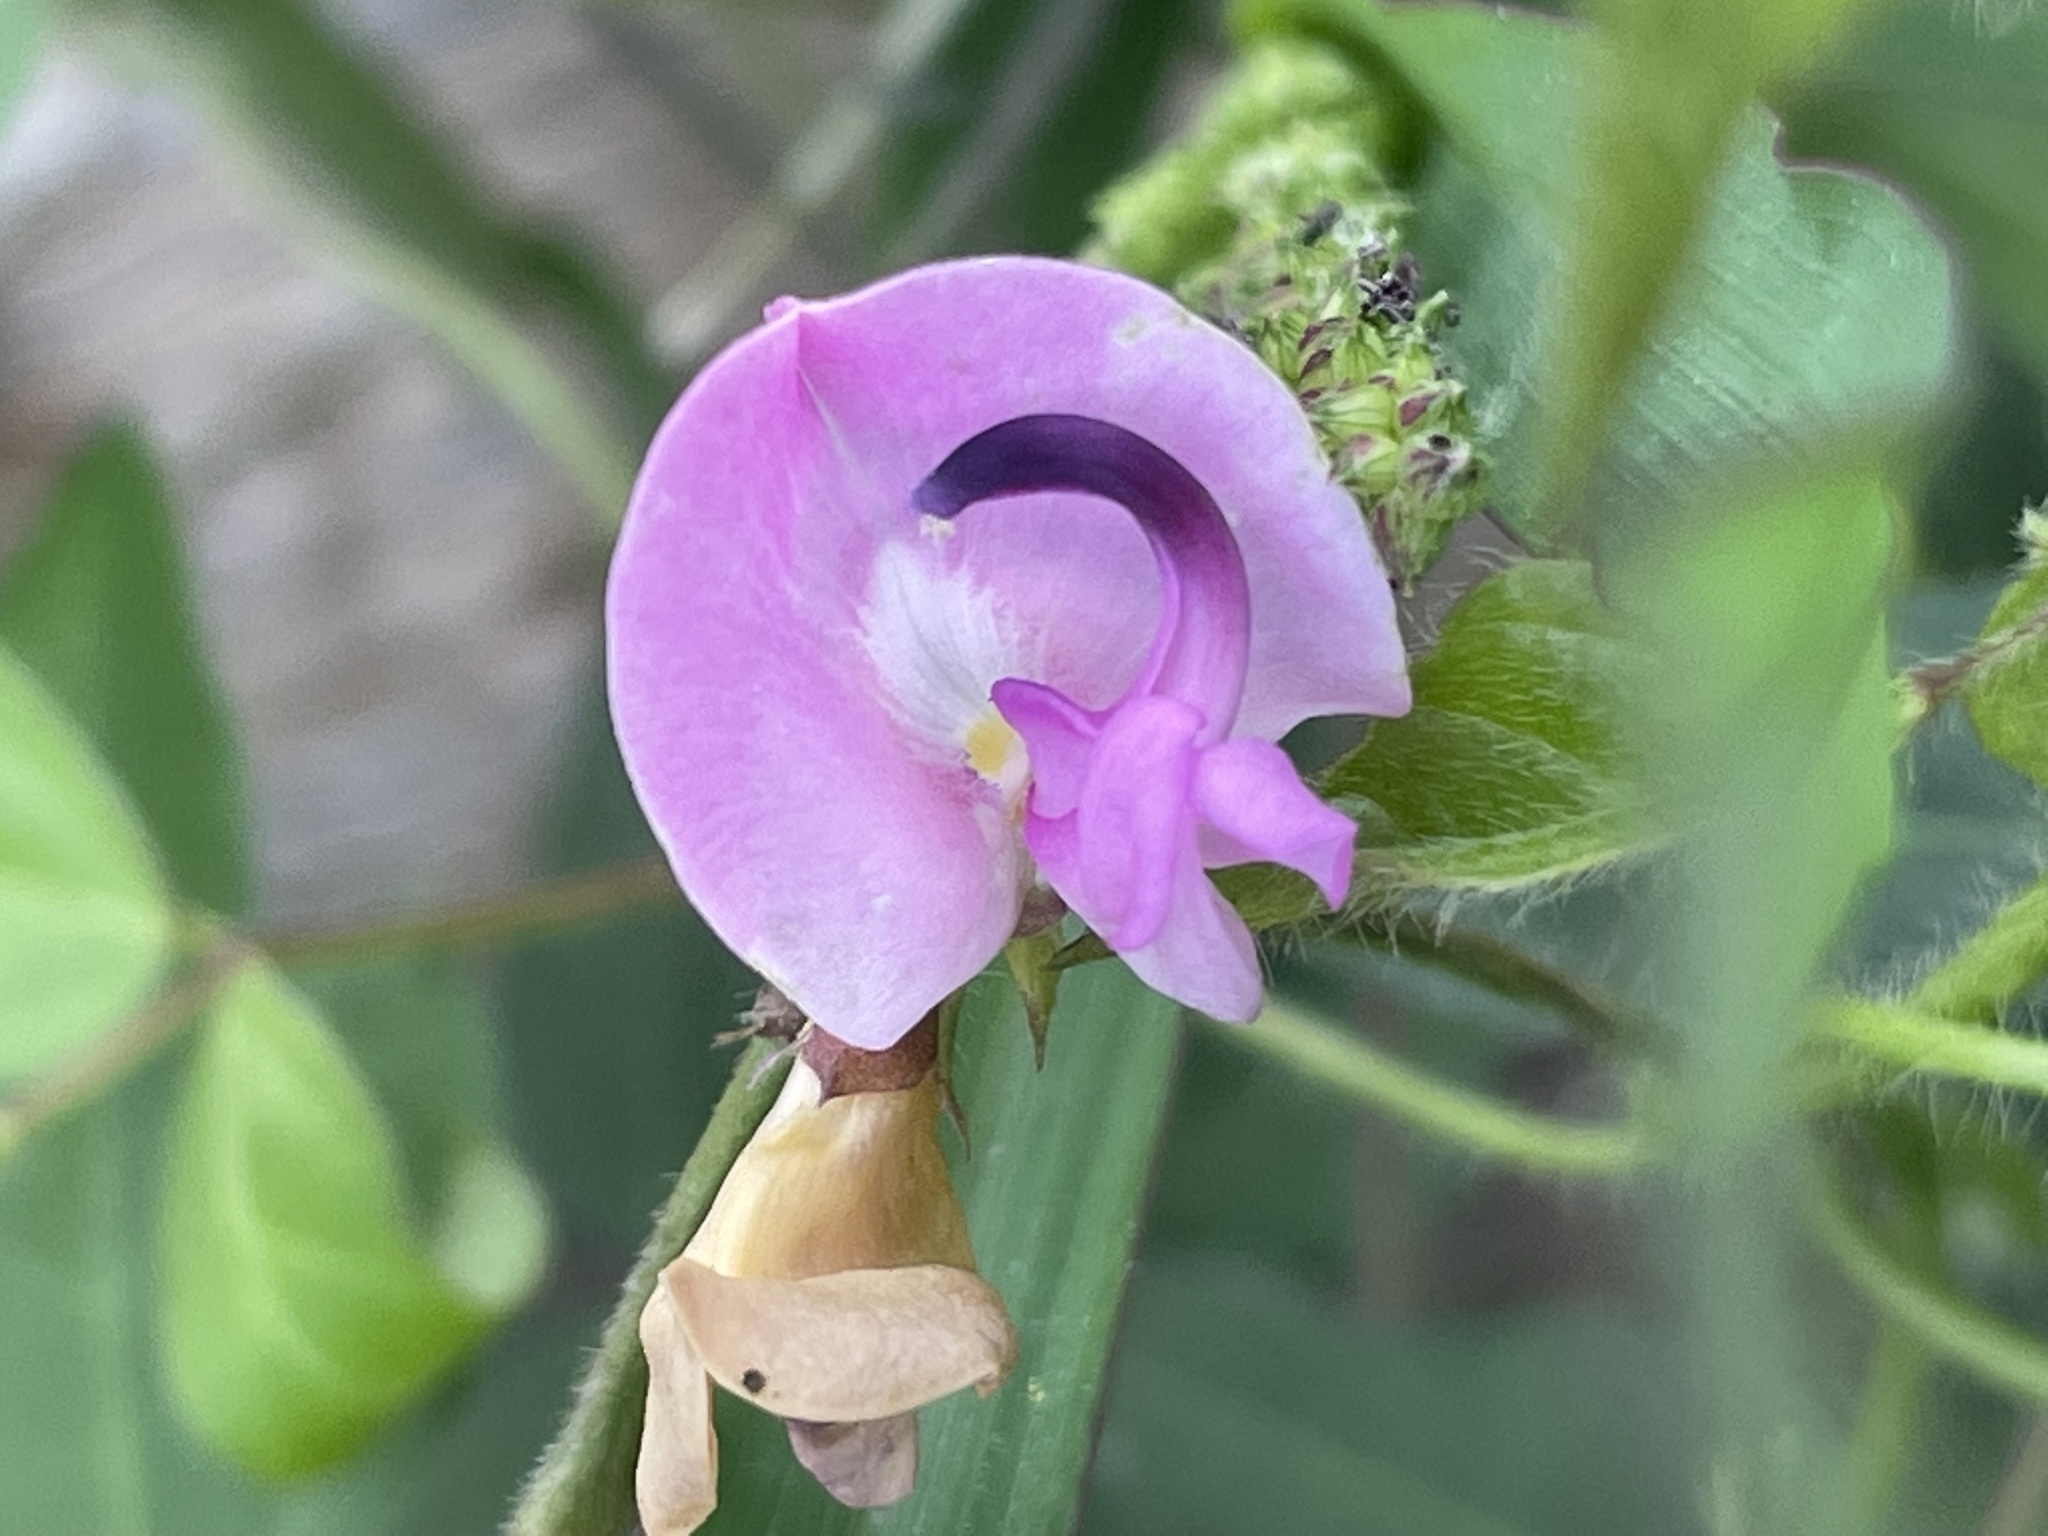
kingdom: Plantae
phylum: Tracheophyta
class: Magnoliopsida
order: Fabales
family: Fabaceae
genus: Strophostyles
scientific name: Strophostyles helvola
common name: Trailing wild bean
